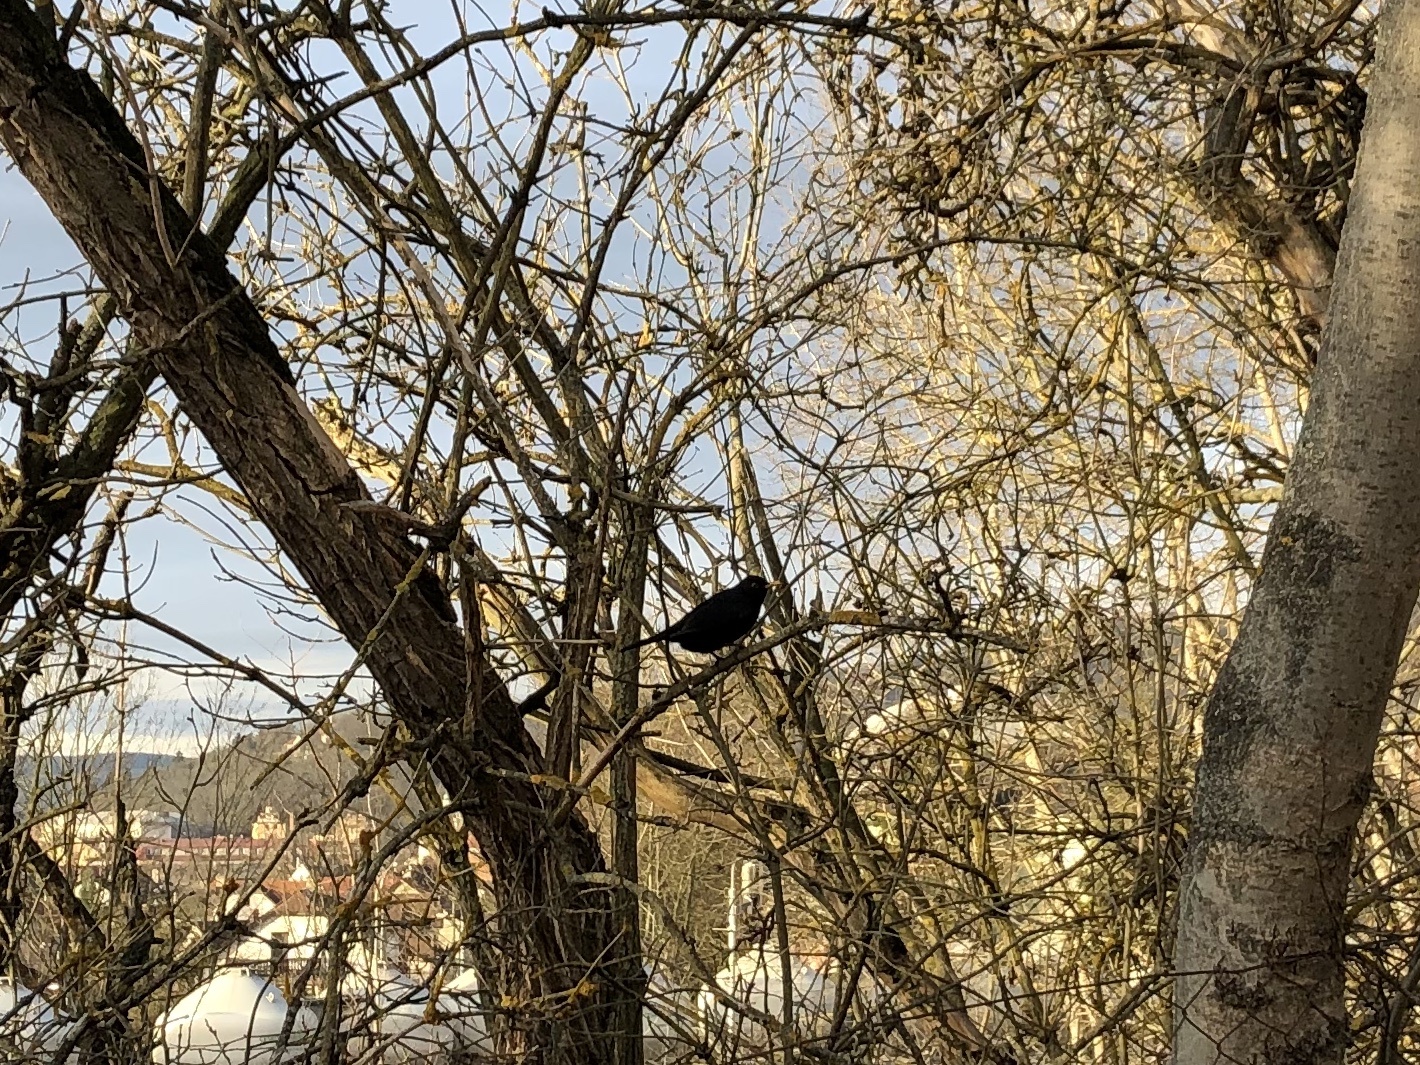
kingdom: Animalia
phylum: Chordata
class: Aves
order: Passeriformes
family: Turdidae
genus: Turdus
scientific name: Turdus merula
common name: Common blackbird
